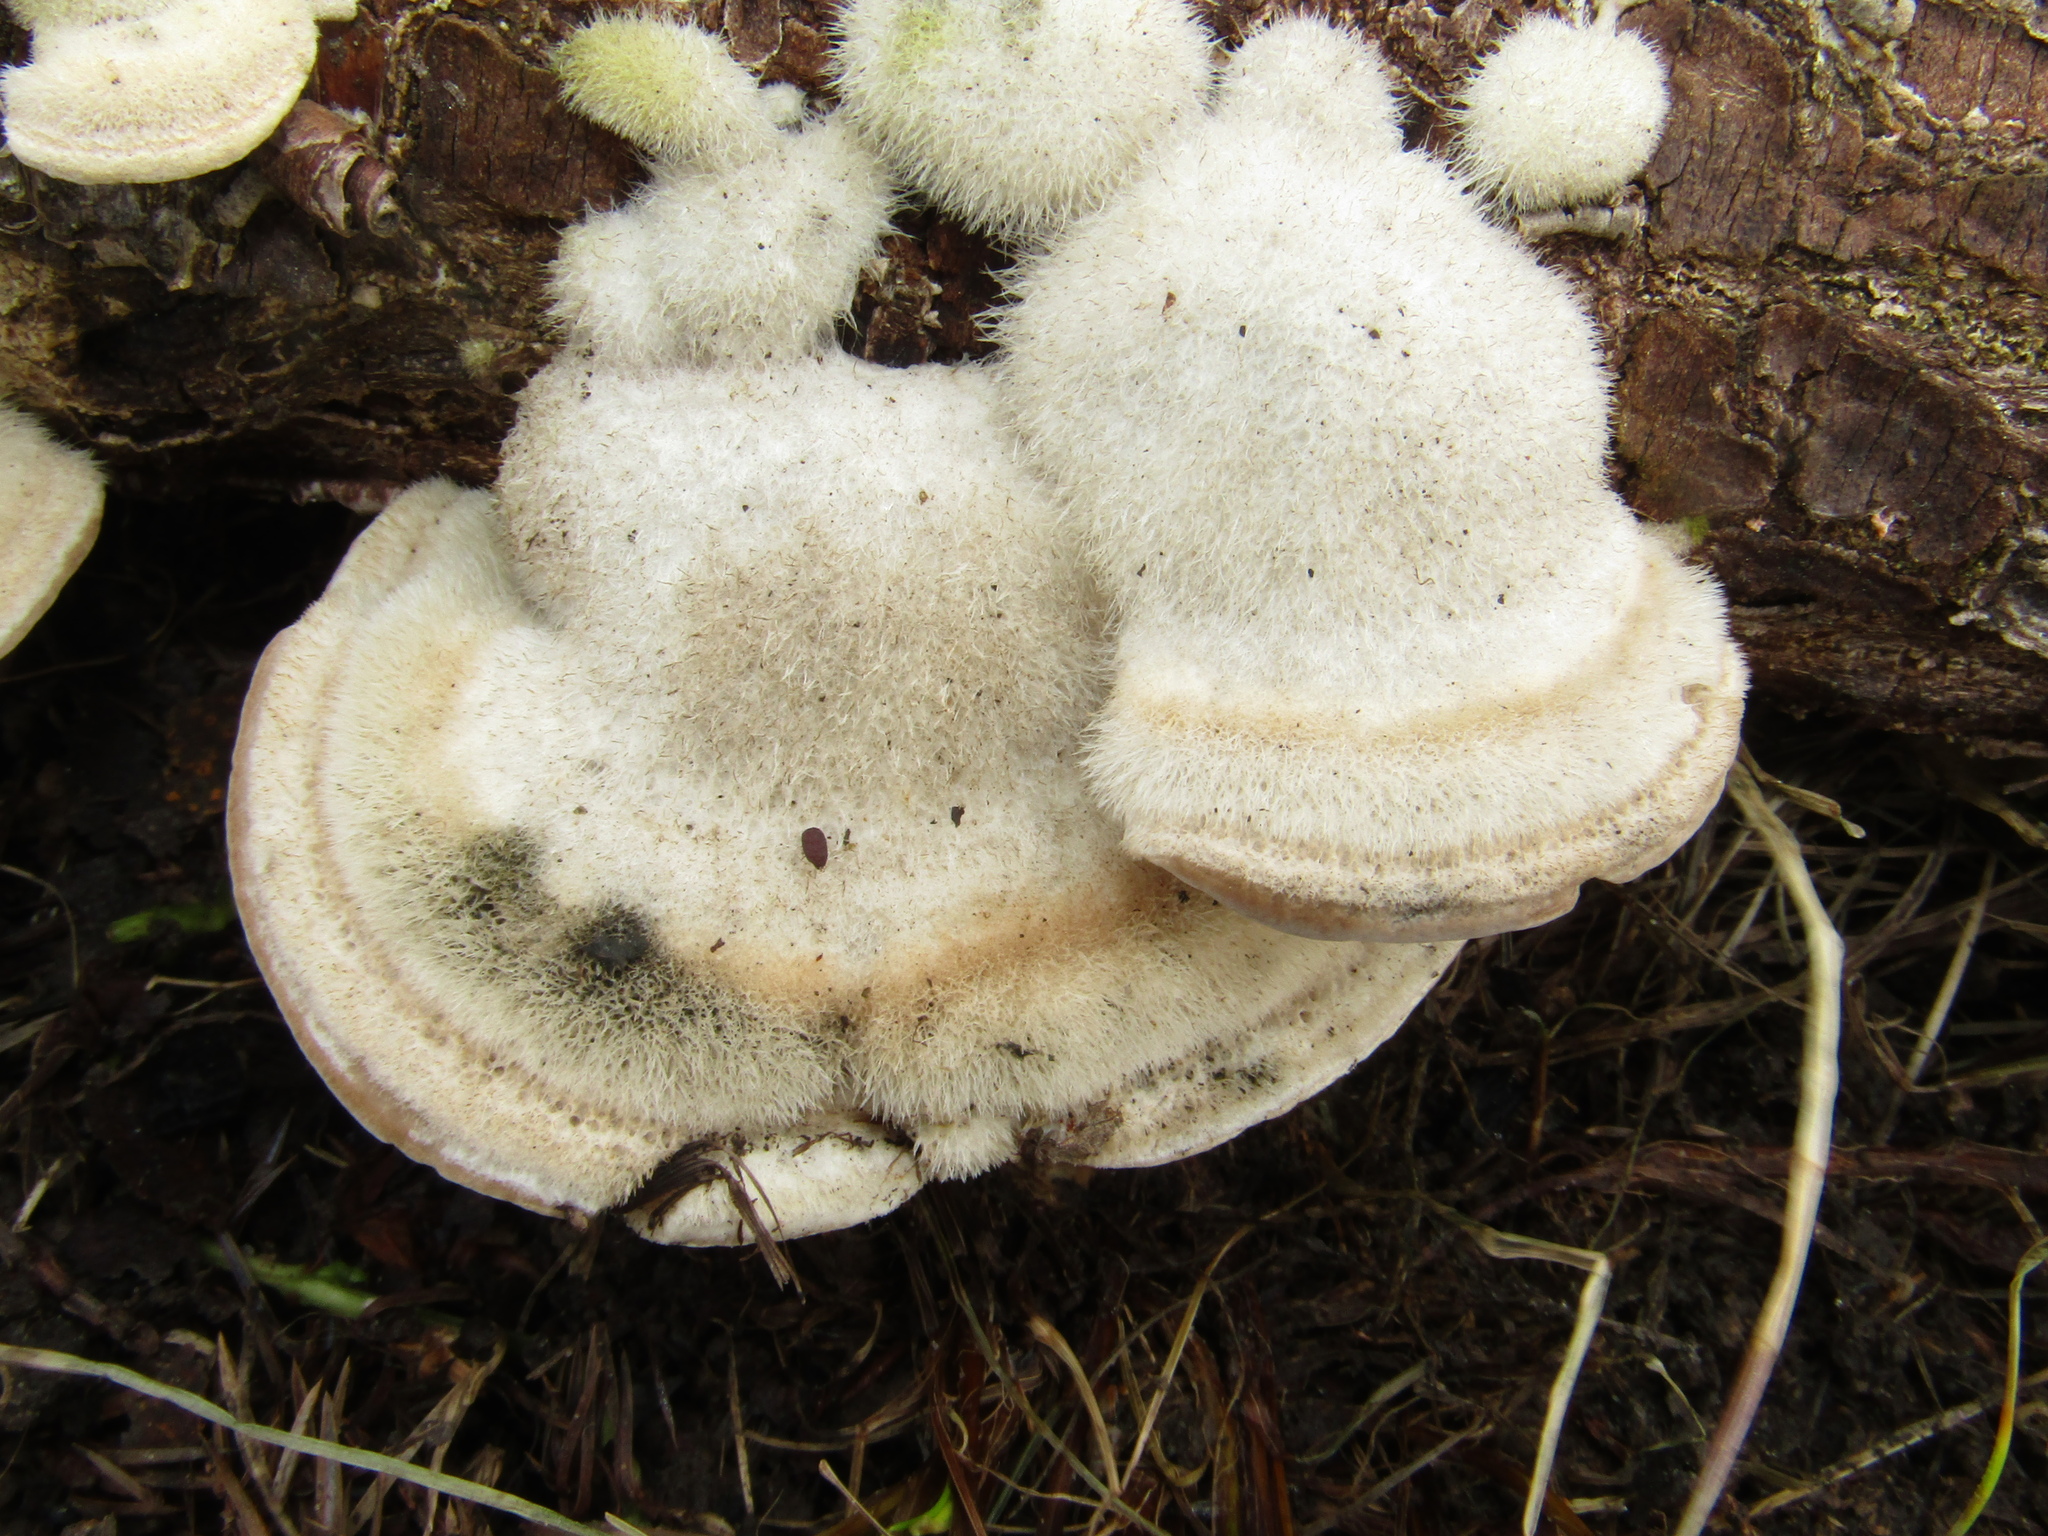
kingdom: Fungi
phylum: Basidiomycota
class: Agaricomycetes
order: Polyporales
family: Polyporaceae
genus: Trametes
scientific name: Trametes hirsuta
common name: Hairy bracket
